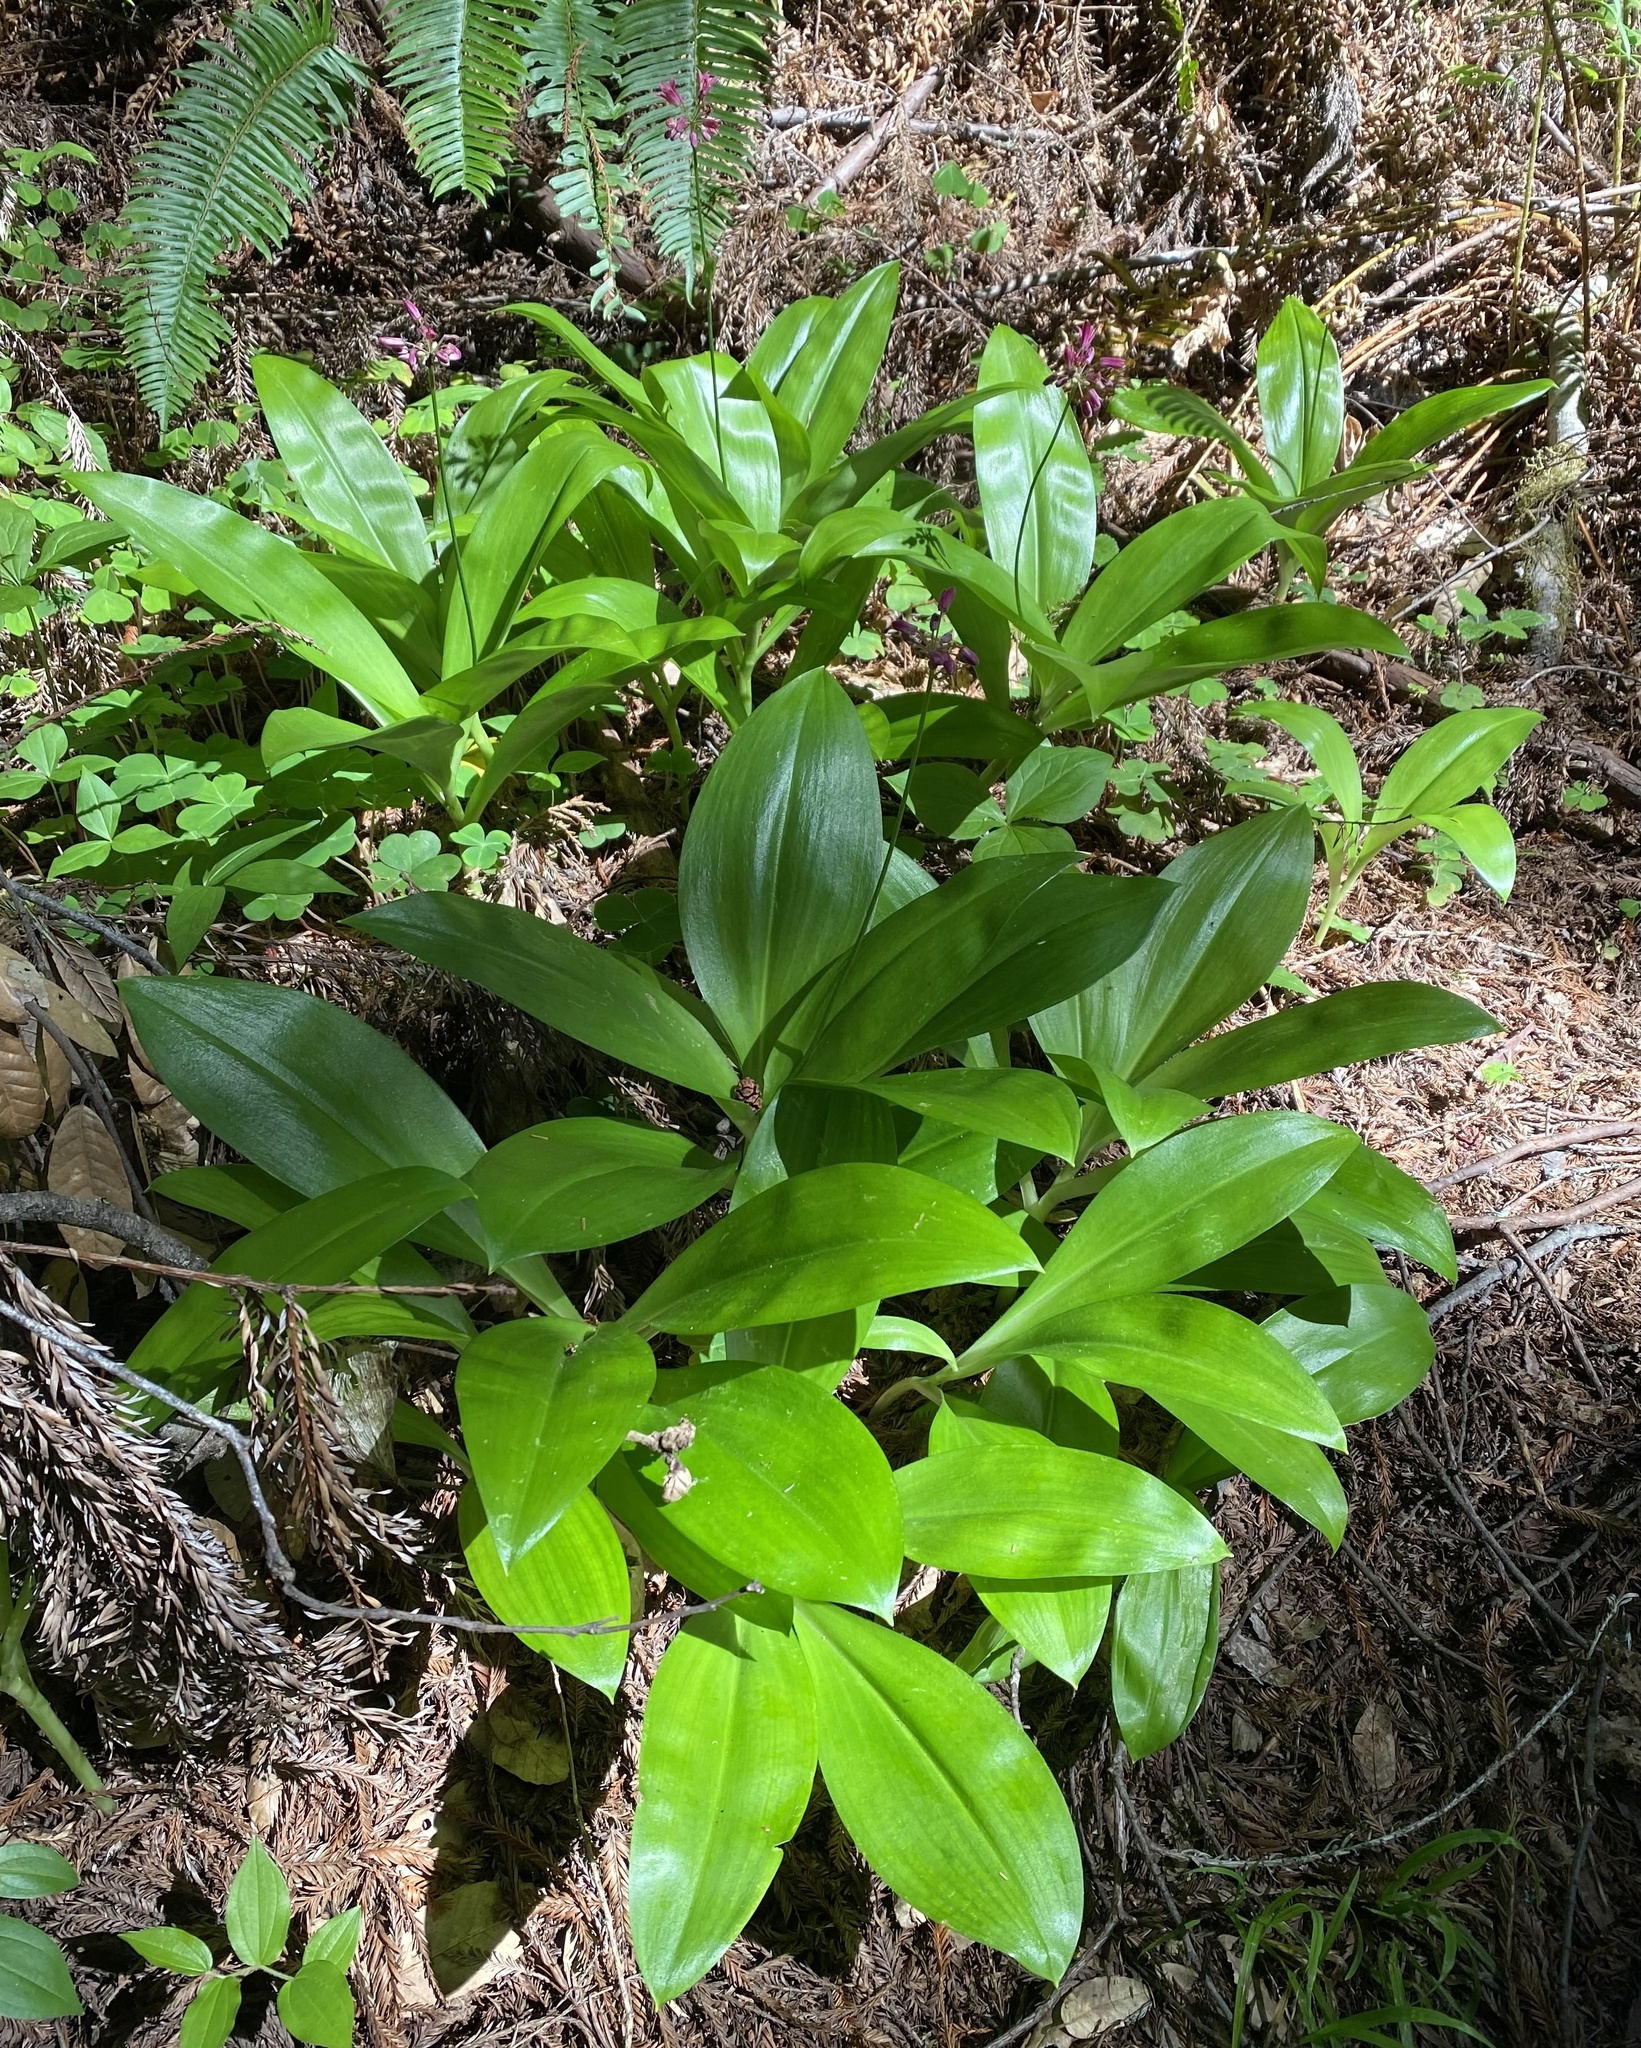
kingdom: Plantae
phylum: Tracheophyta
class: Liliopsida
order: Liliales
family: Liliaceae
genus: Clintonia
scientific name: Clintonia andrewsiana
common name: Red clintonia
